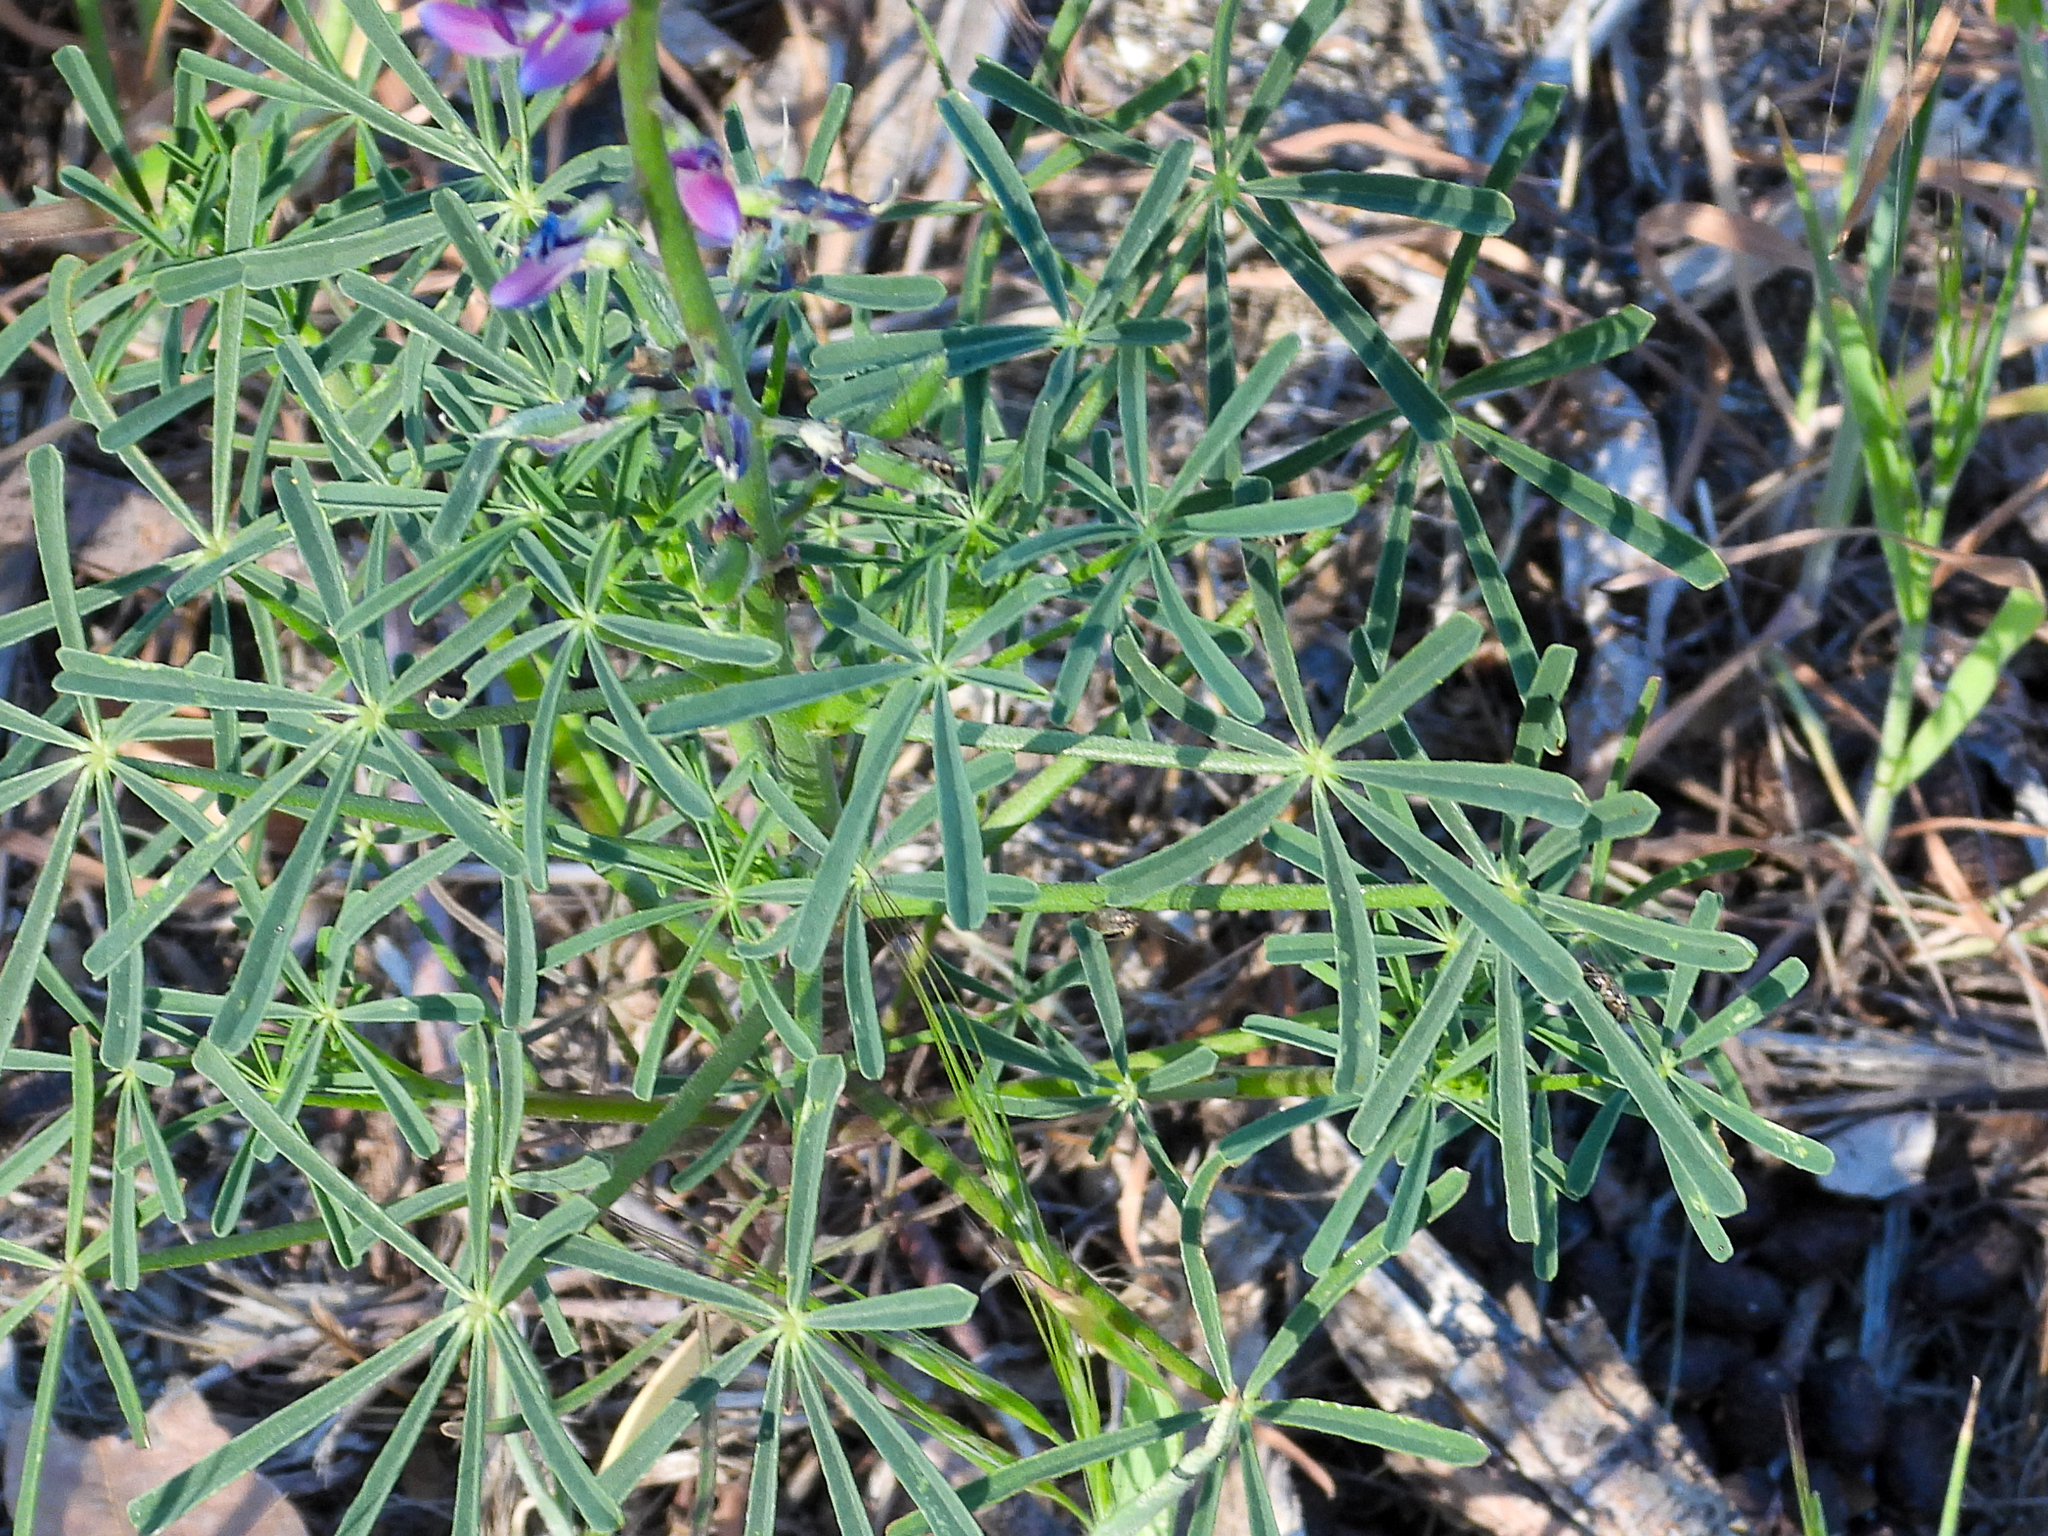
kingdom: Plantae
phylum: Tracheophyta
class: Magnoliopsida
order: Fabales
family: Fabaceae
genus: Lupinus
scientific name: Lupinus truncatus
